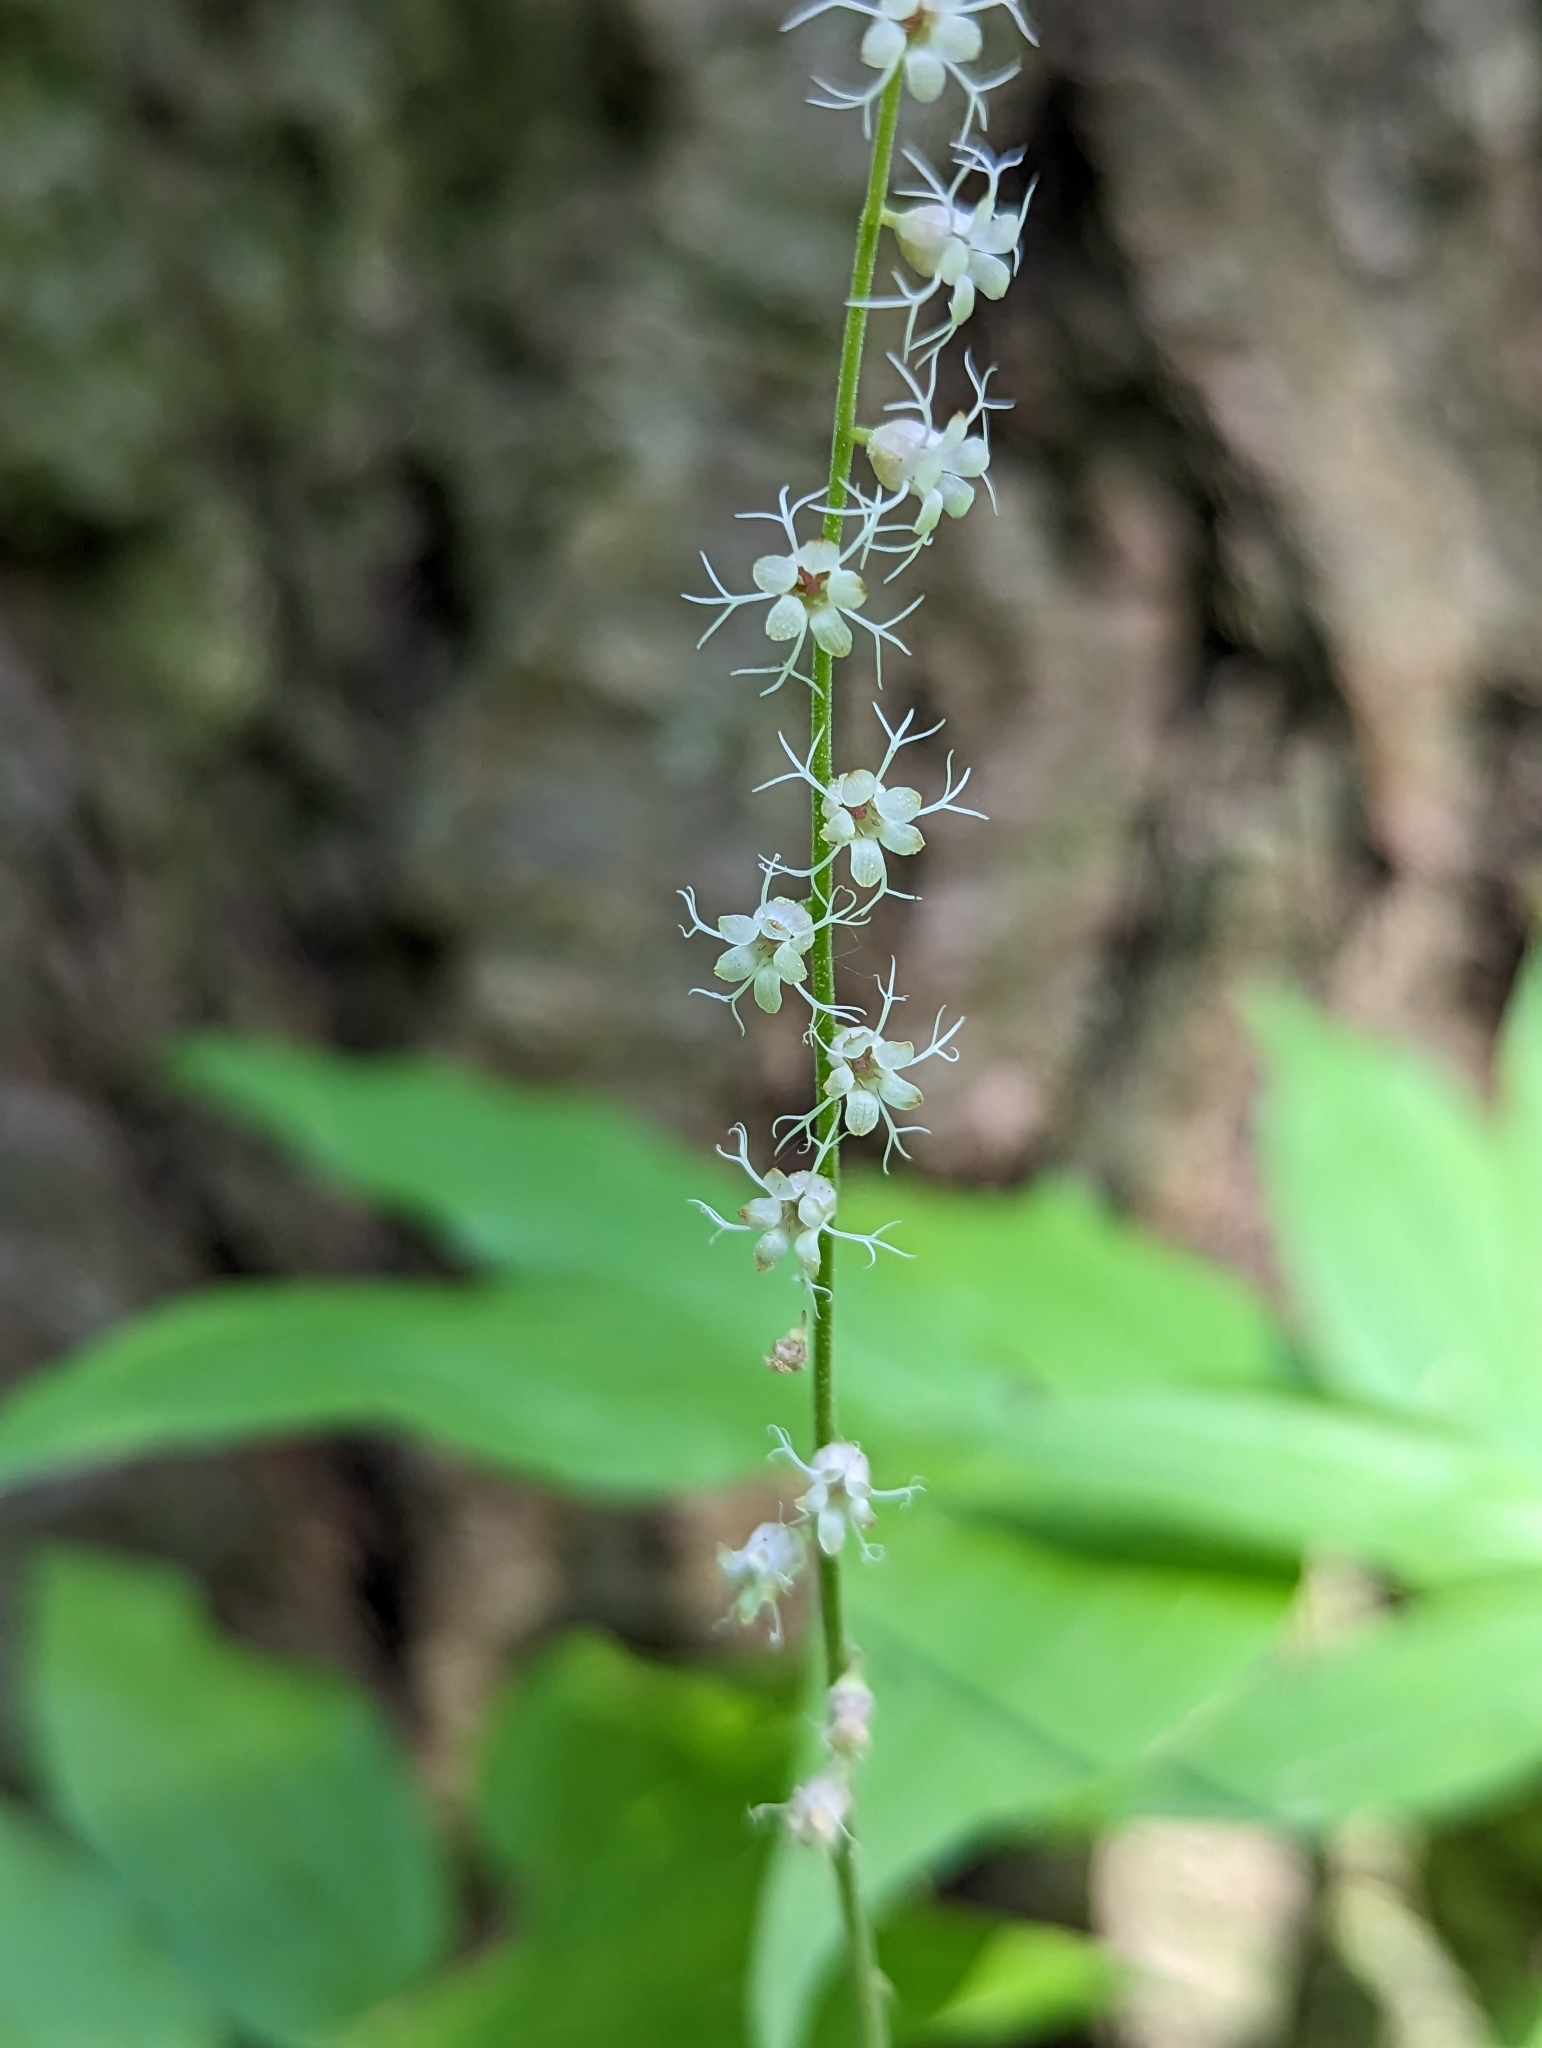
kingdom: Plantae
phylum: Tracheophyta
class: Magnoliopsida
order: Saxifragales
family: Saxifragaceae
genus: Ozomelis
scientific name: Ozomelis stauropetala
